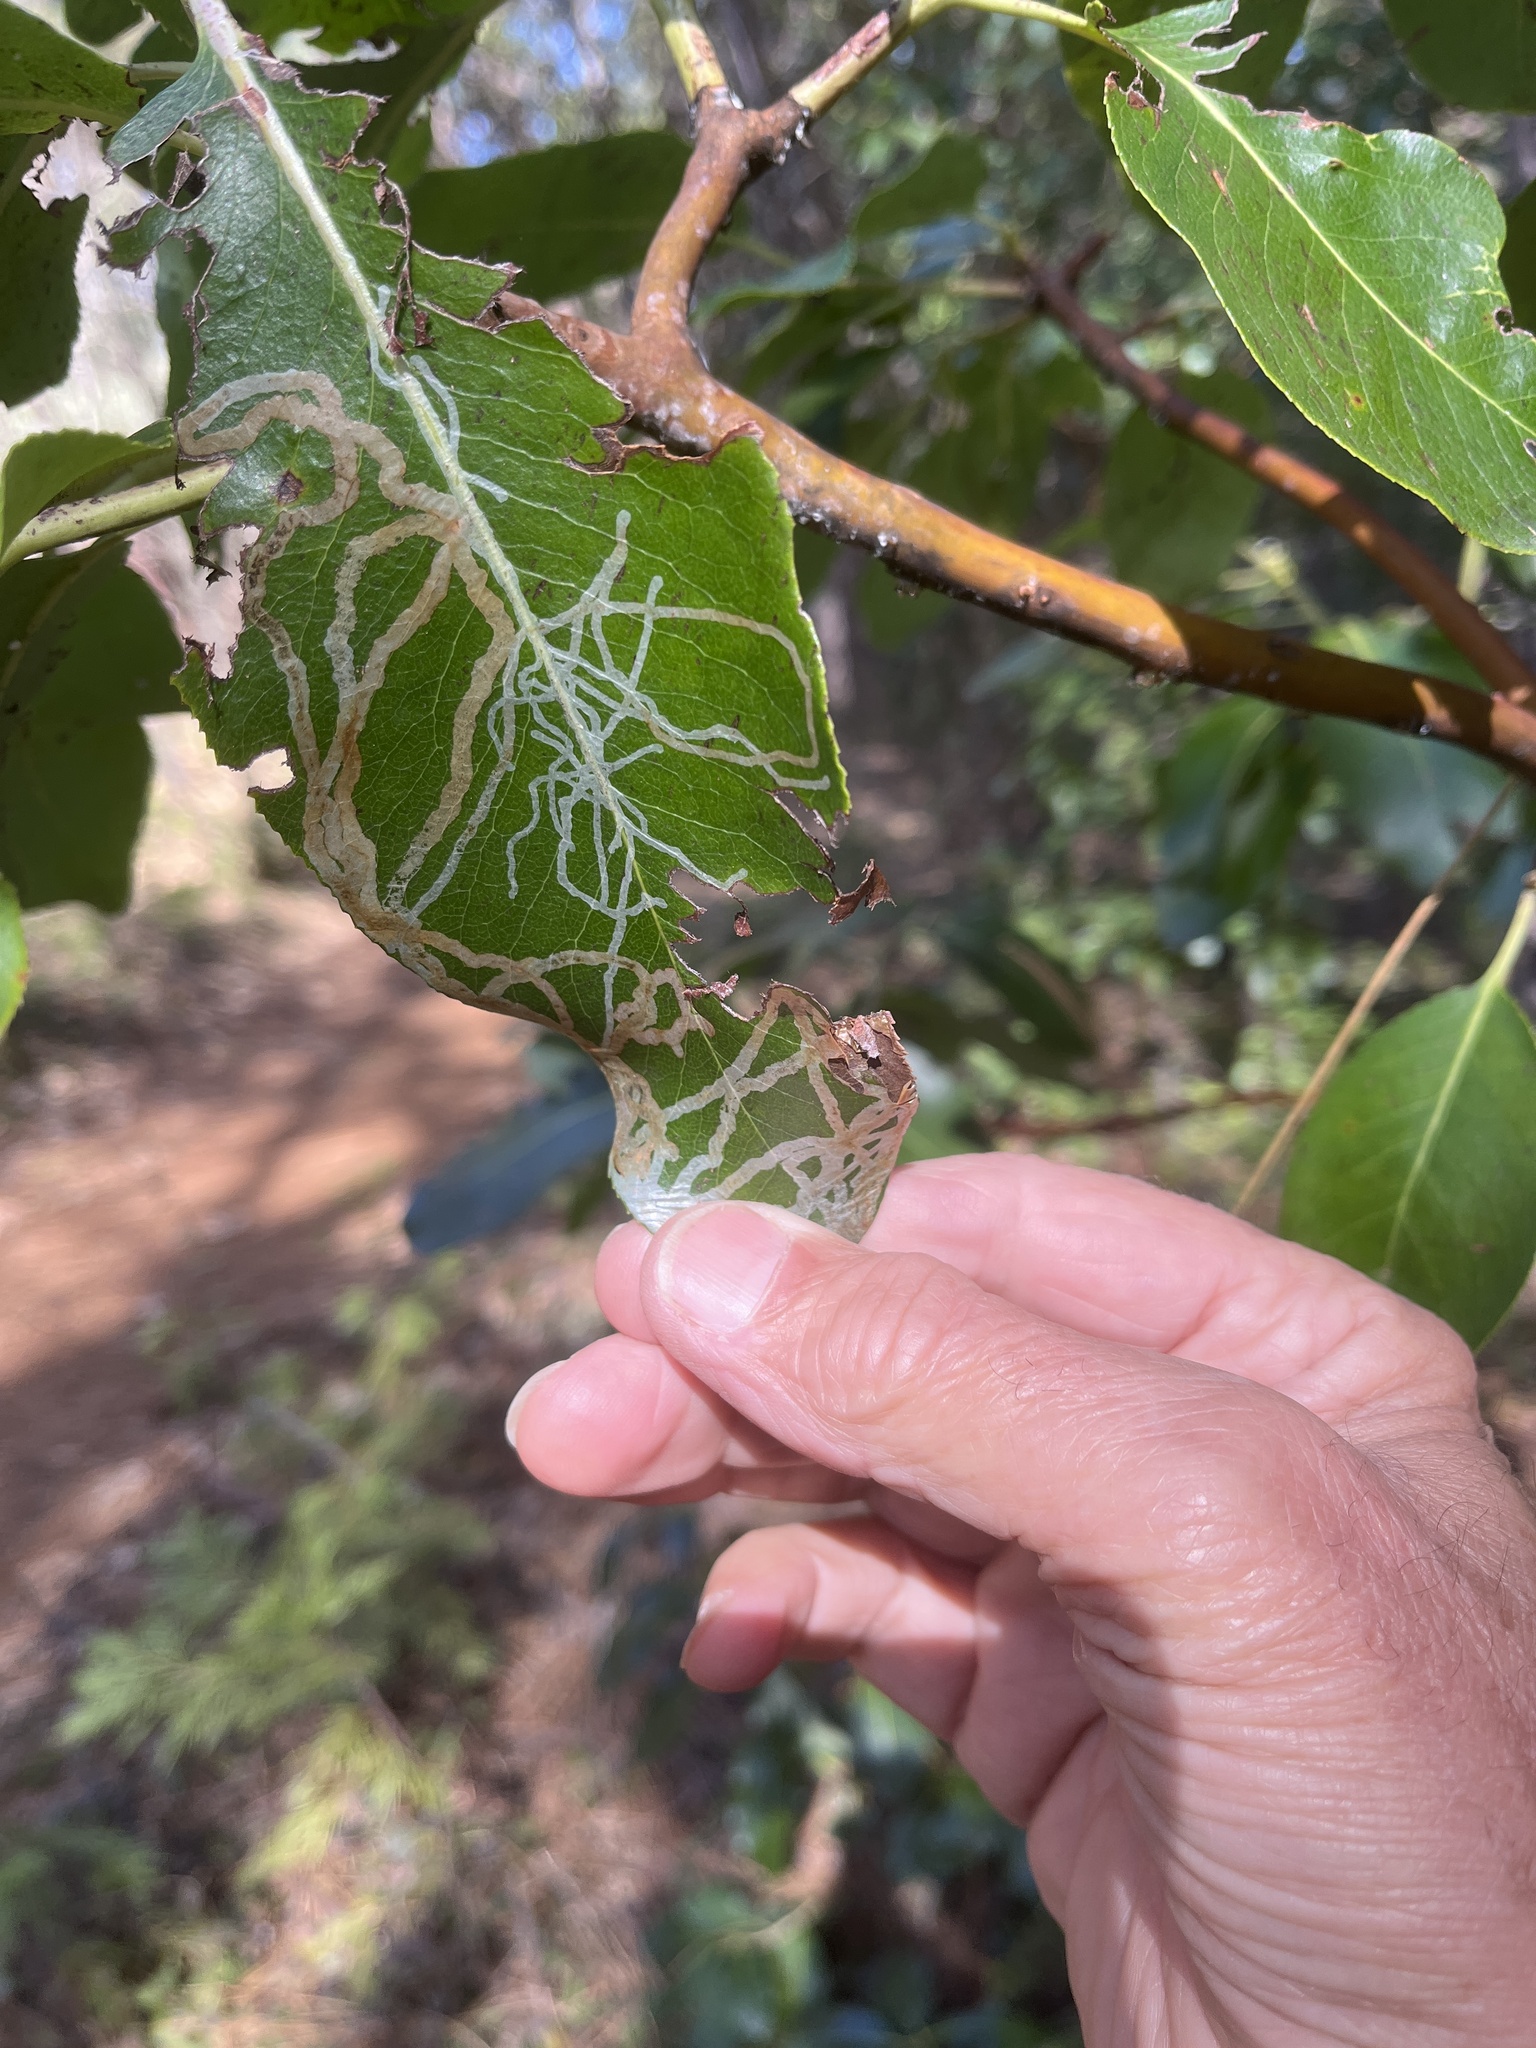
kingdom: Animalia
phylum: Arthropoda
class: Insecta
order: Lepidoptera
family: Gracillariidae
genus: Marmara
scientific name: Marmara arbutiella
